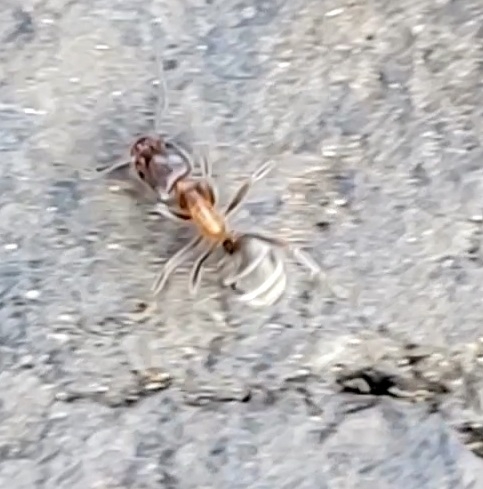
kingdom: Animalia
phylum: Arthropoda
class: Insecta
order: Hymenoptera
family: Formicidae
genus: Liometopum
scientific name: Liometopum occidentale
